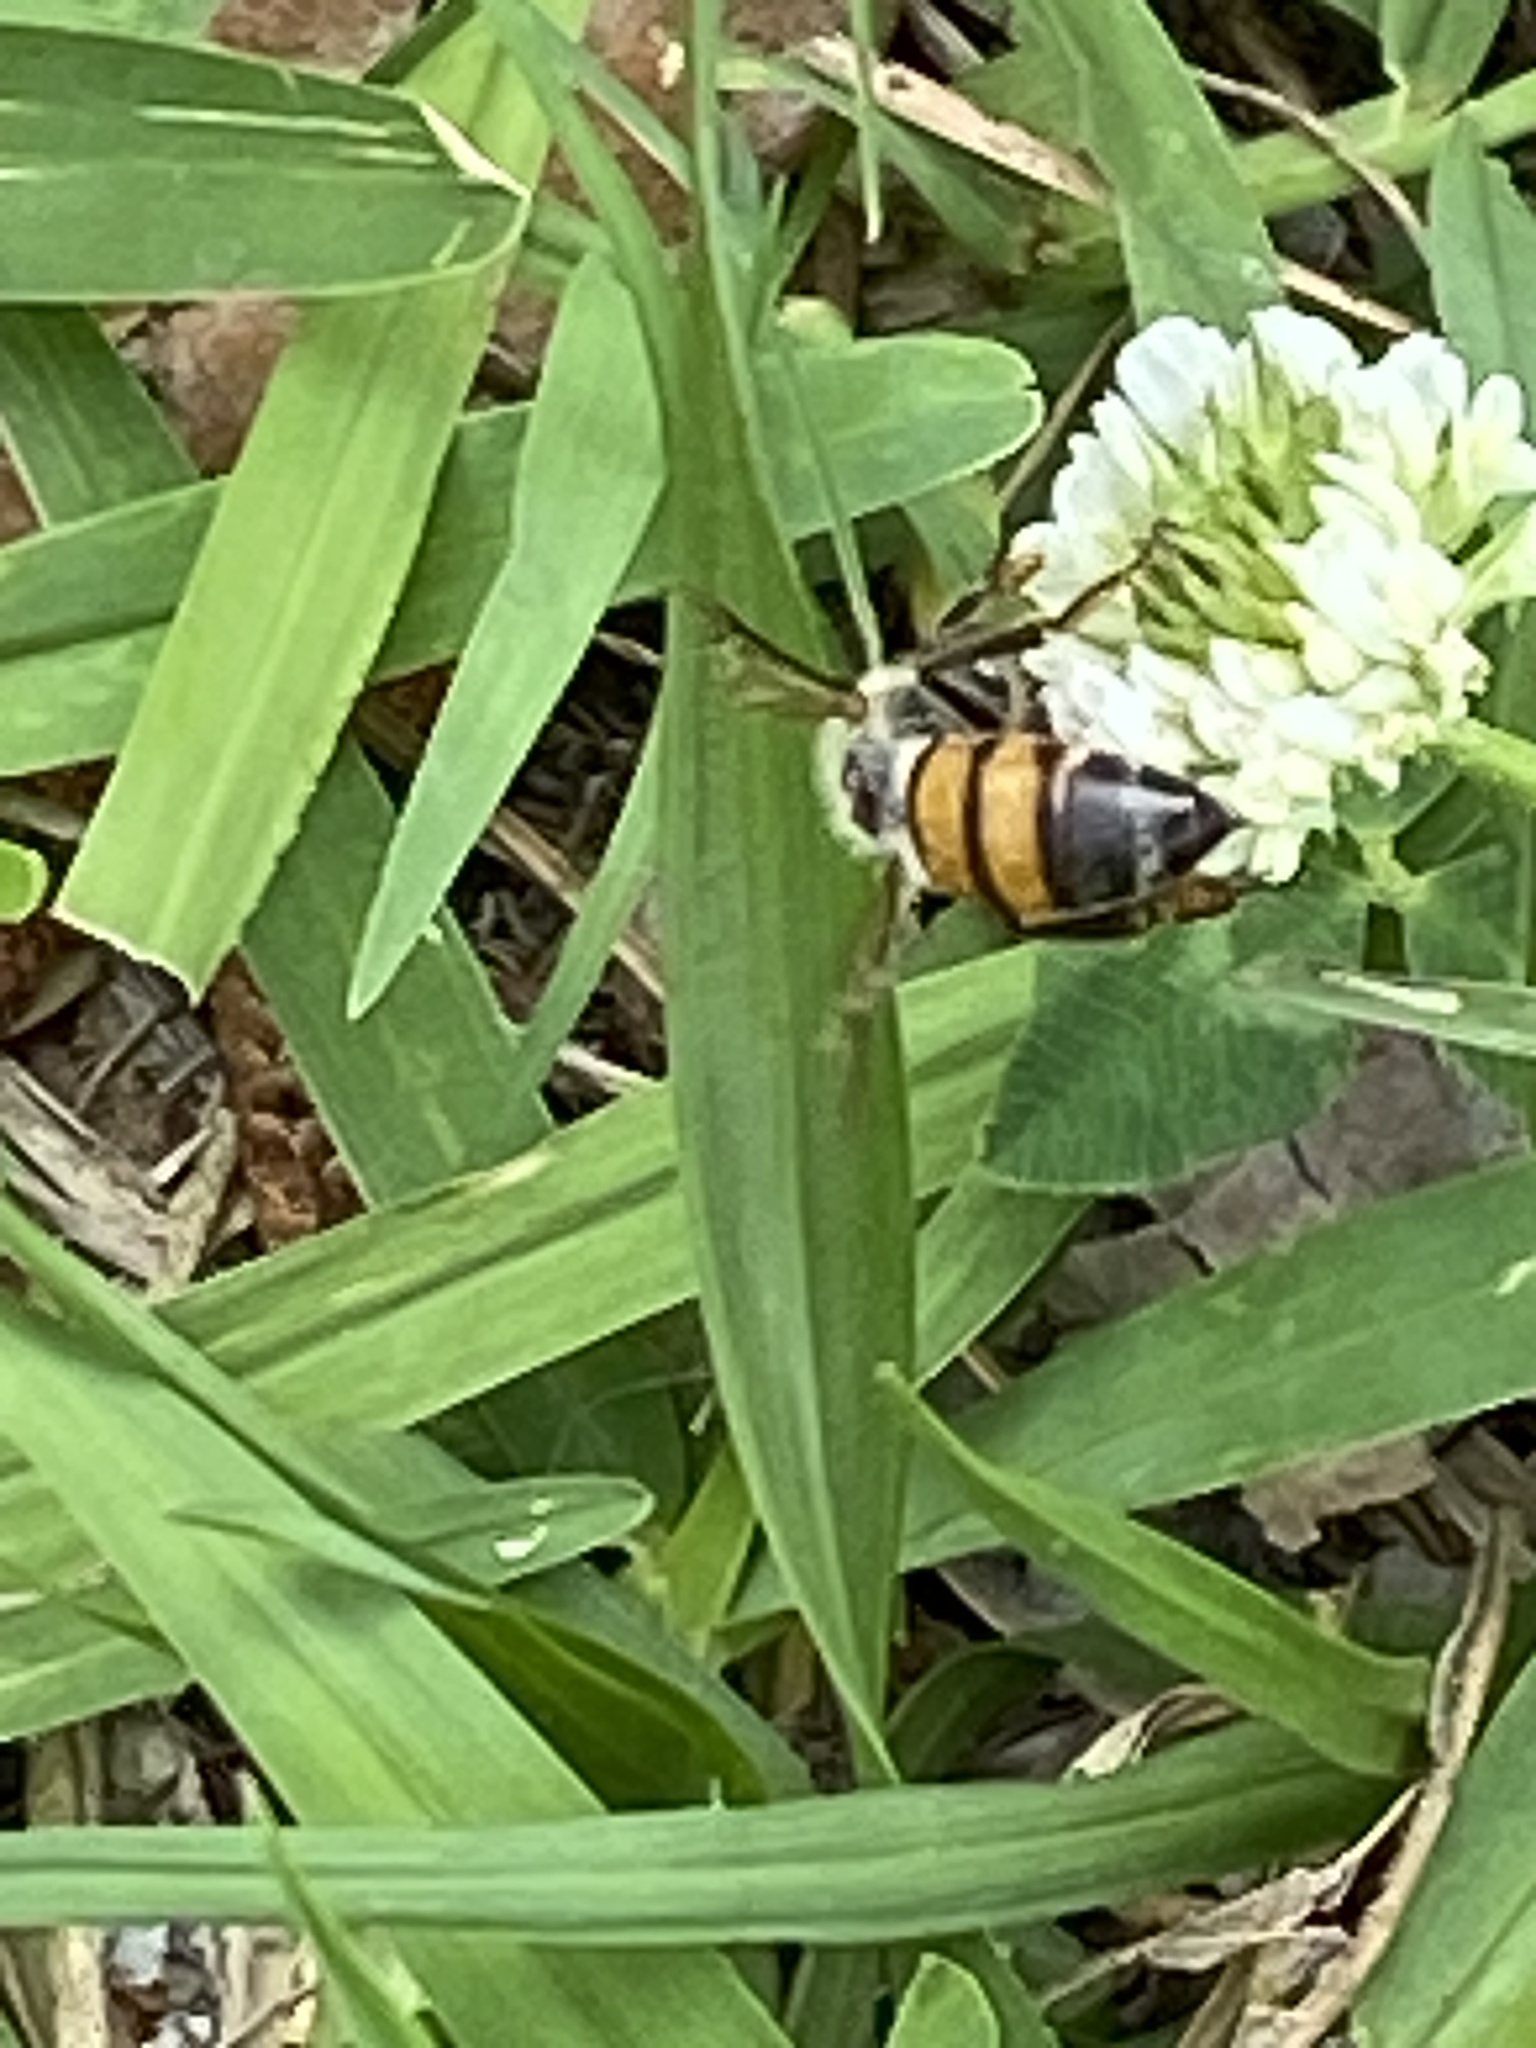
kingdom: Animalia
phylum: Arthropoda
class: Insecta
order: Hymenoptera
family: Apidae
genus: Apis
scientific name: Apis mellifera
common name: Honey bee
